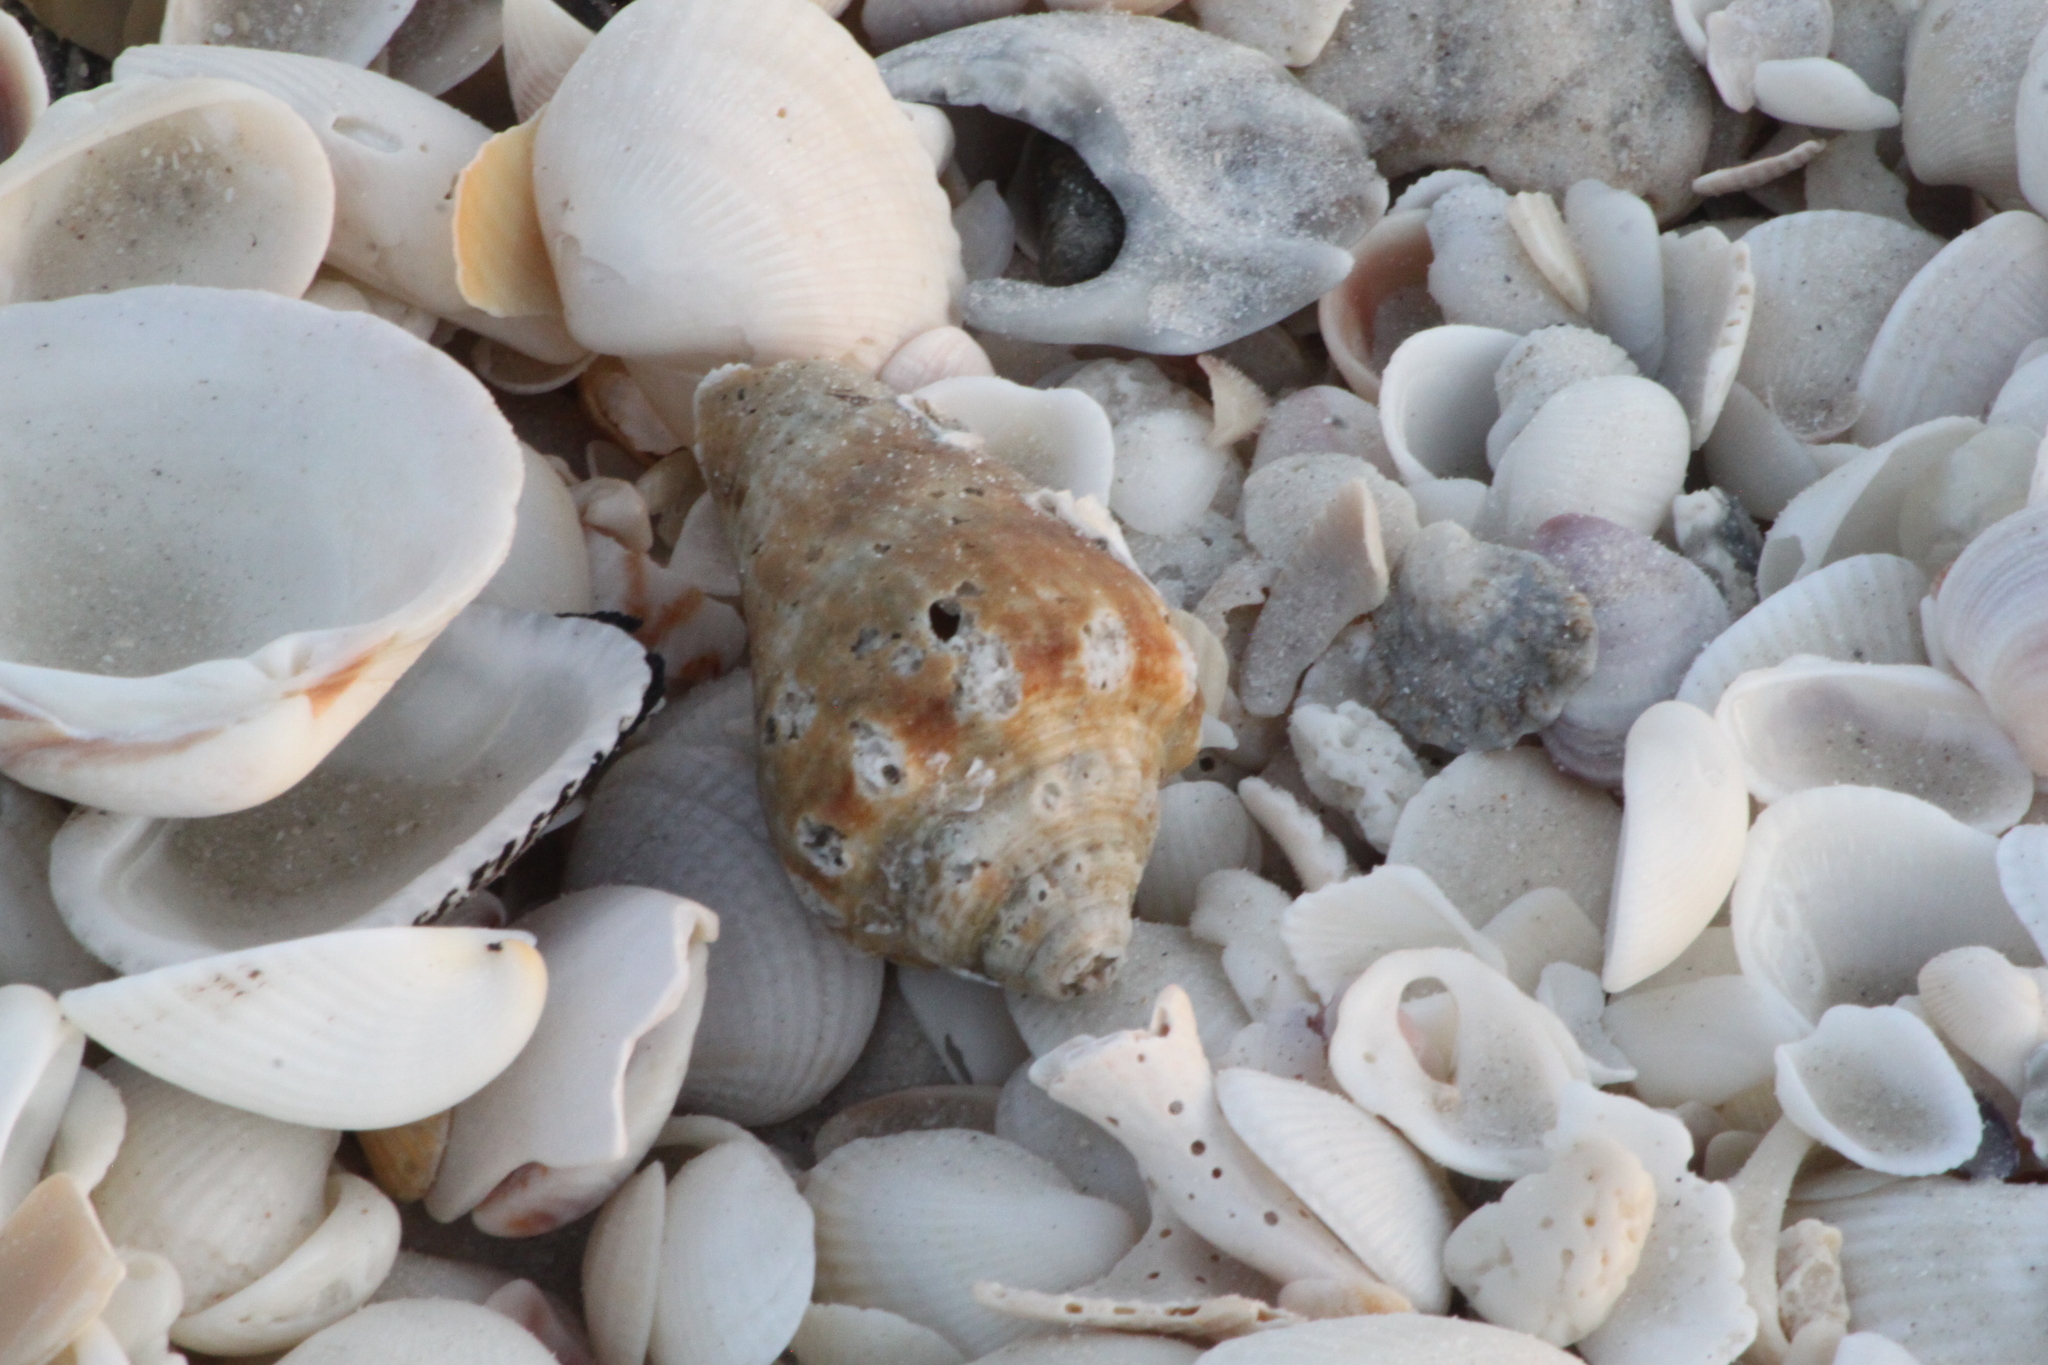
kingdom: Animalia
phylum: Mollusca
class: Gastropoda
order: Littorinimorpha
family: Strombidae
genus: Strombus
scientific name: Strombus alatus
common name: Florida fighting conch
